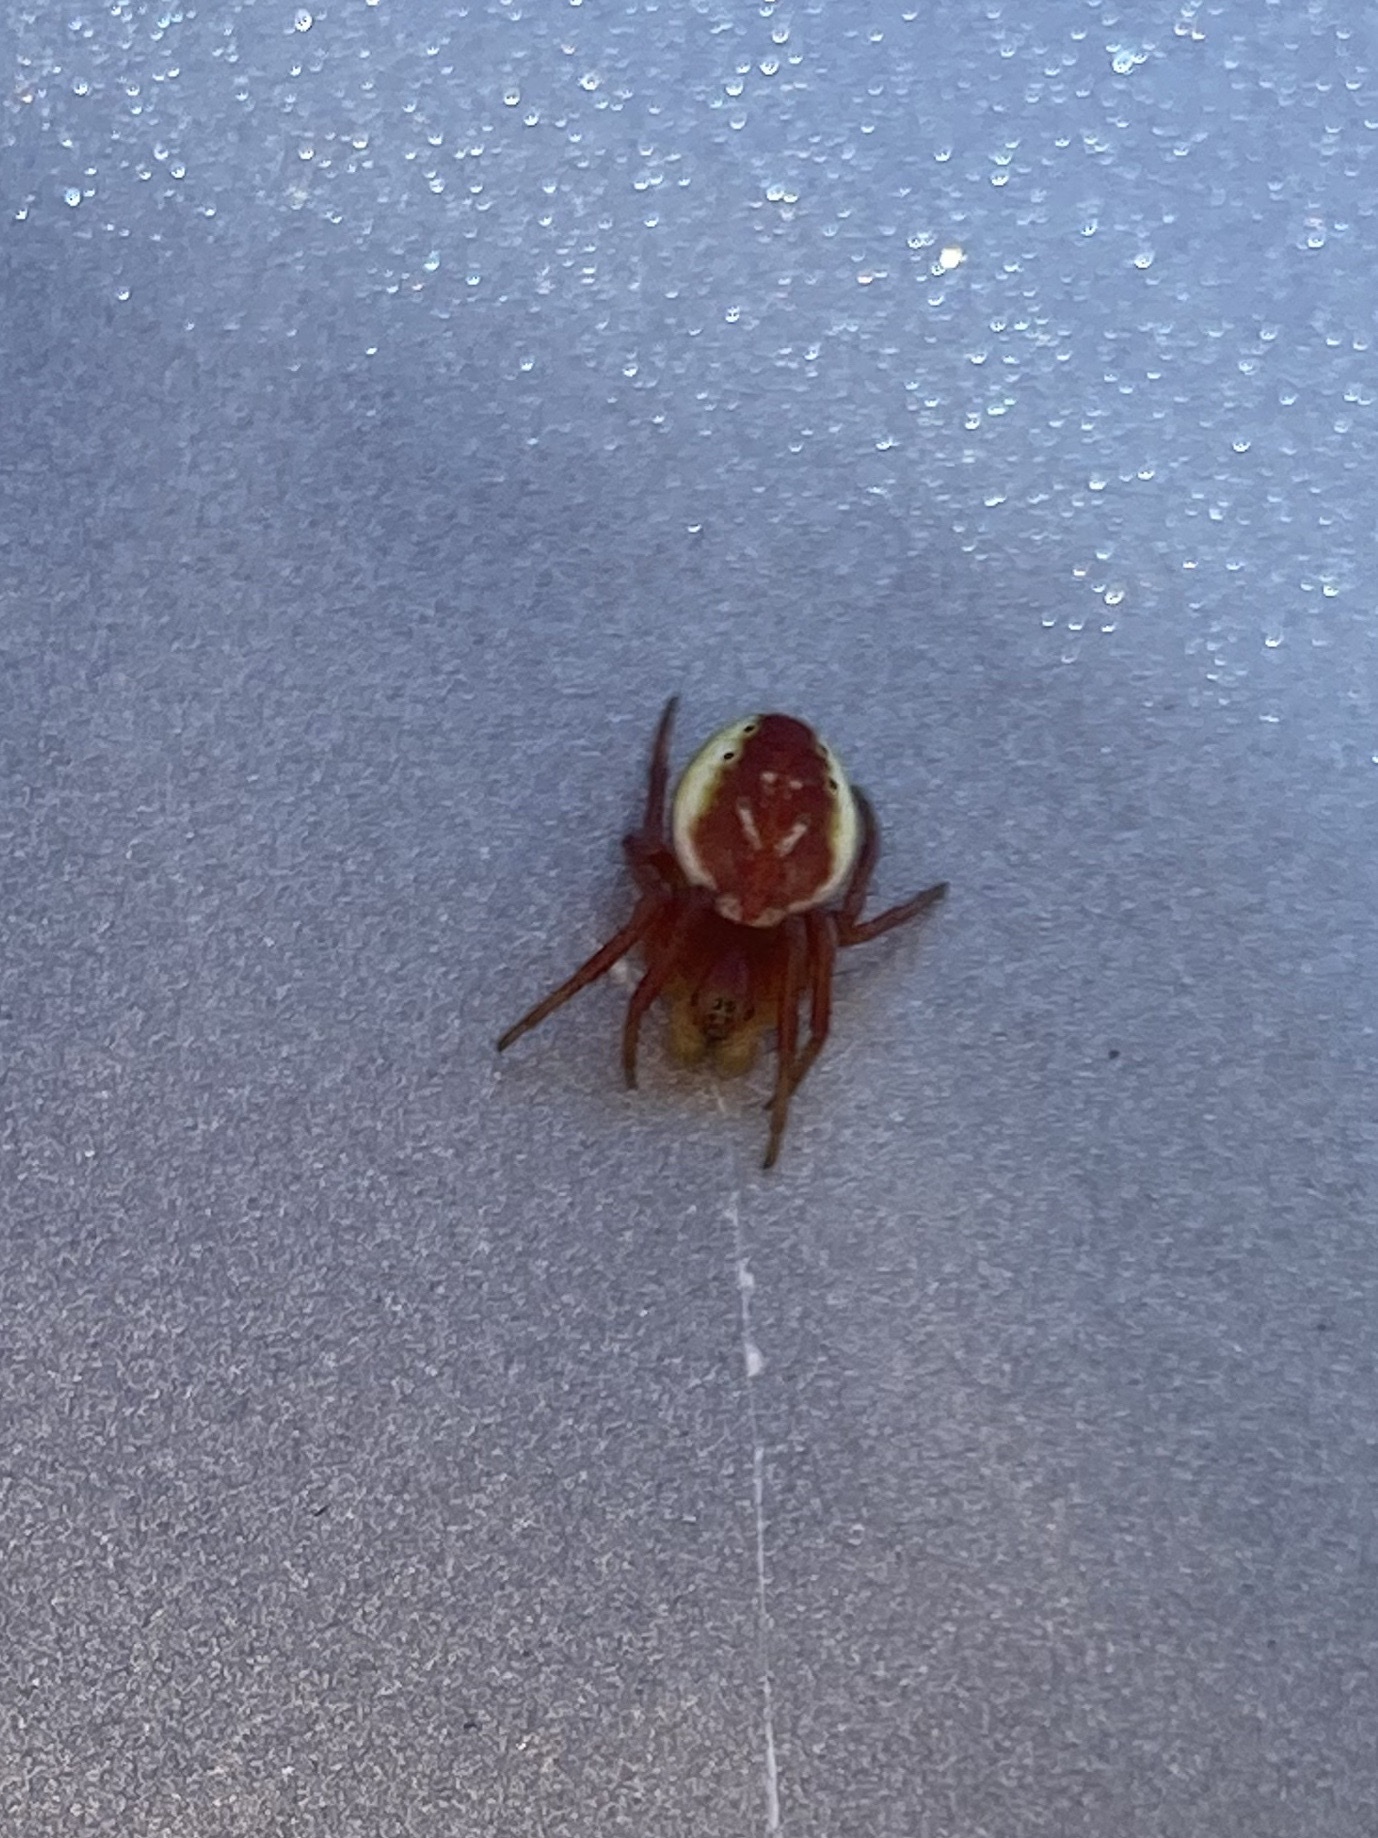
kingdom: Animalia
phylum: Arthropoda
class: Arachnida
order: Araneae
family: Araneidae
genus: Araniella
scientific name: Araniella displicata
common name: Sixspotted orb weaver
